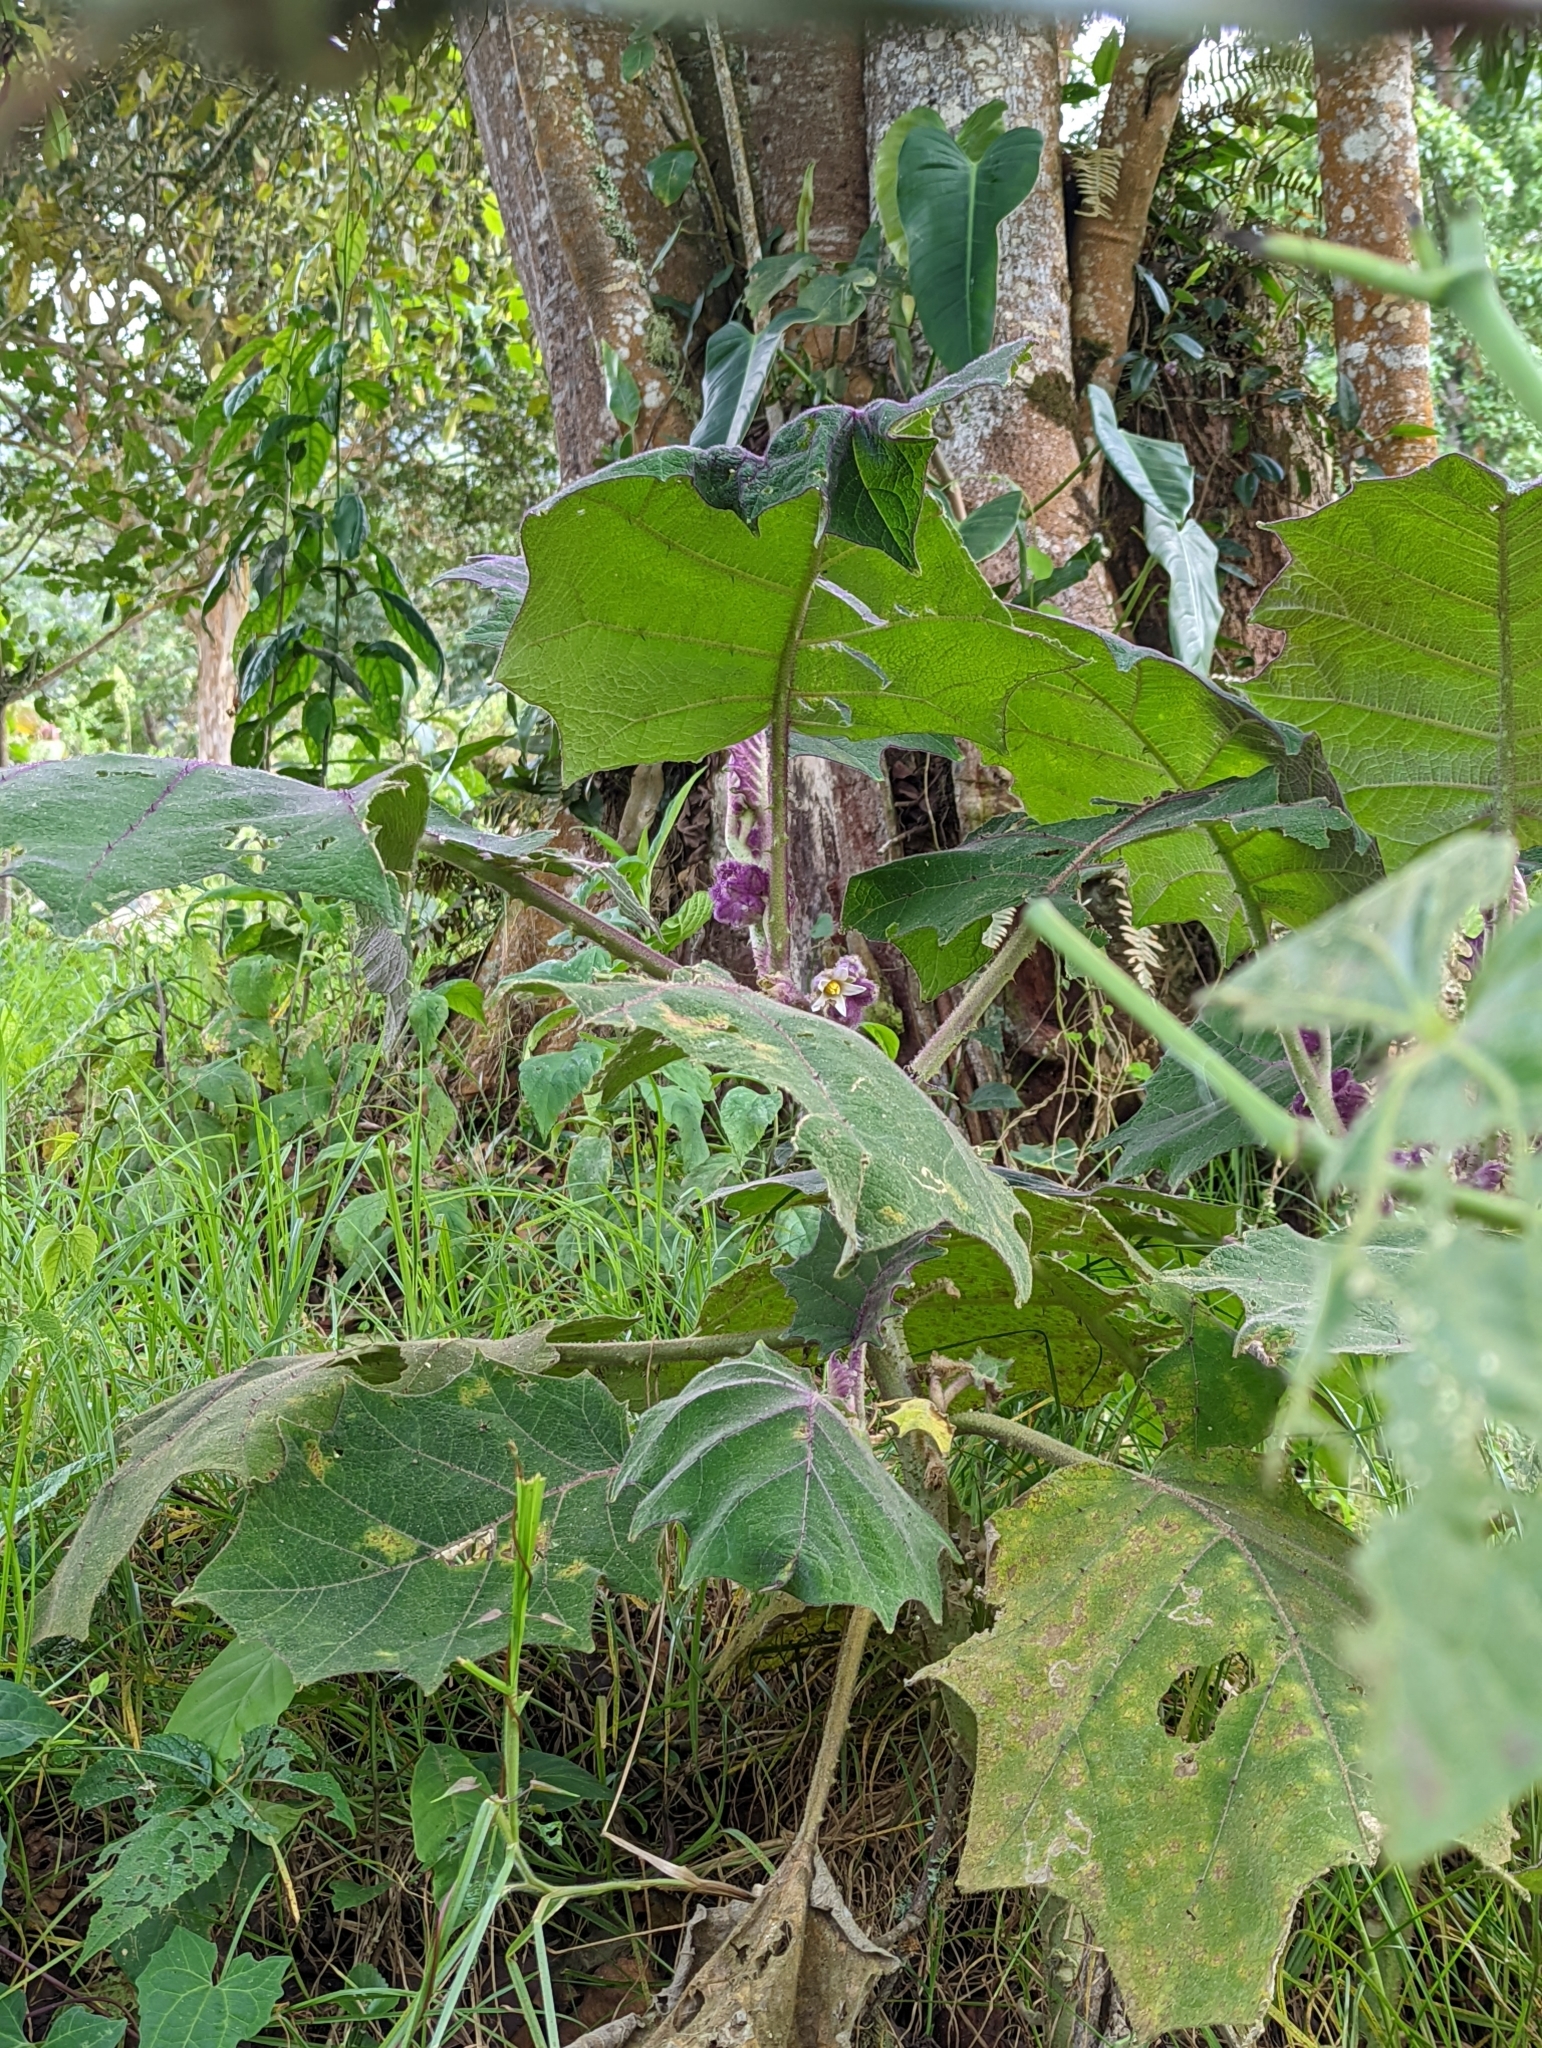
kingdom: Plantae
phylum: Tracheophyta
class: Magnoliopsida
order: Solanales
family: Solanaceae
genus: Solanum
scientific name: Solanum quitoense
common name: Quito-orange
